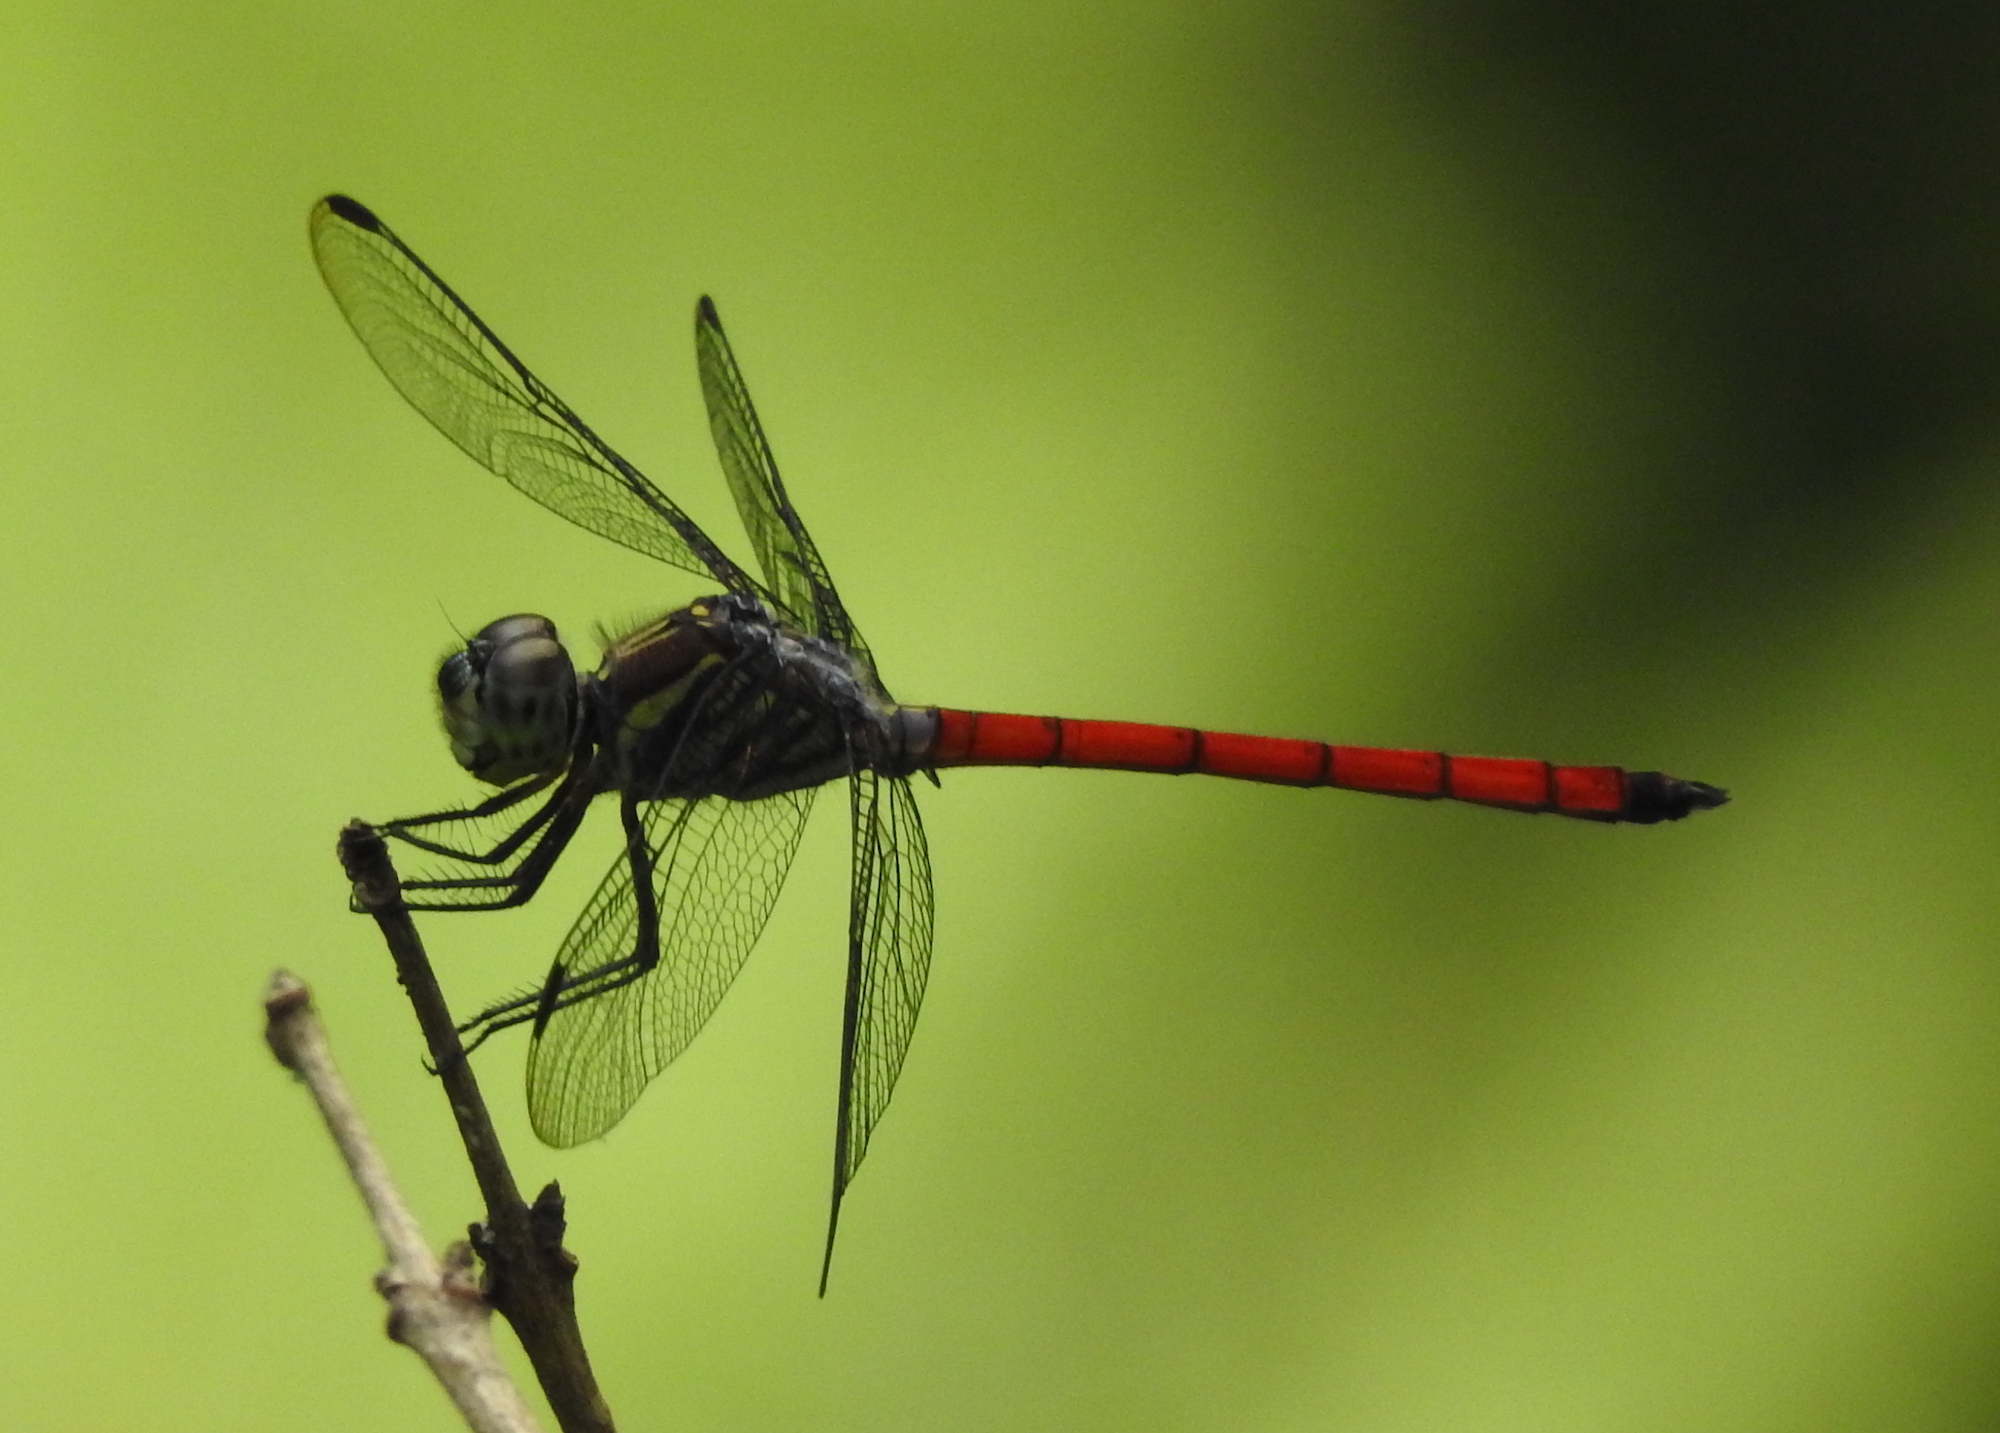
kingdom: Animalia
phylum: Arthropoda
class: Insecta
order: Odonata
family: Libellulidae
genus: Lathrecista
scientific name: Lathrecista asiatica
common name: Scarlet grenadier
